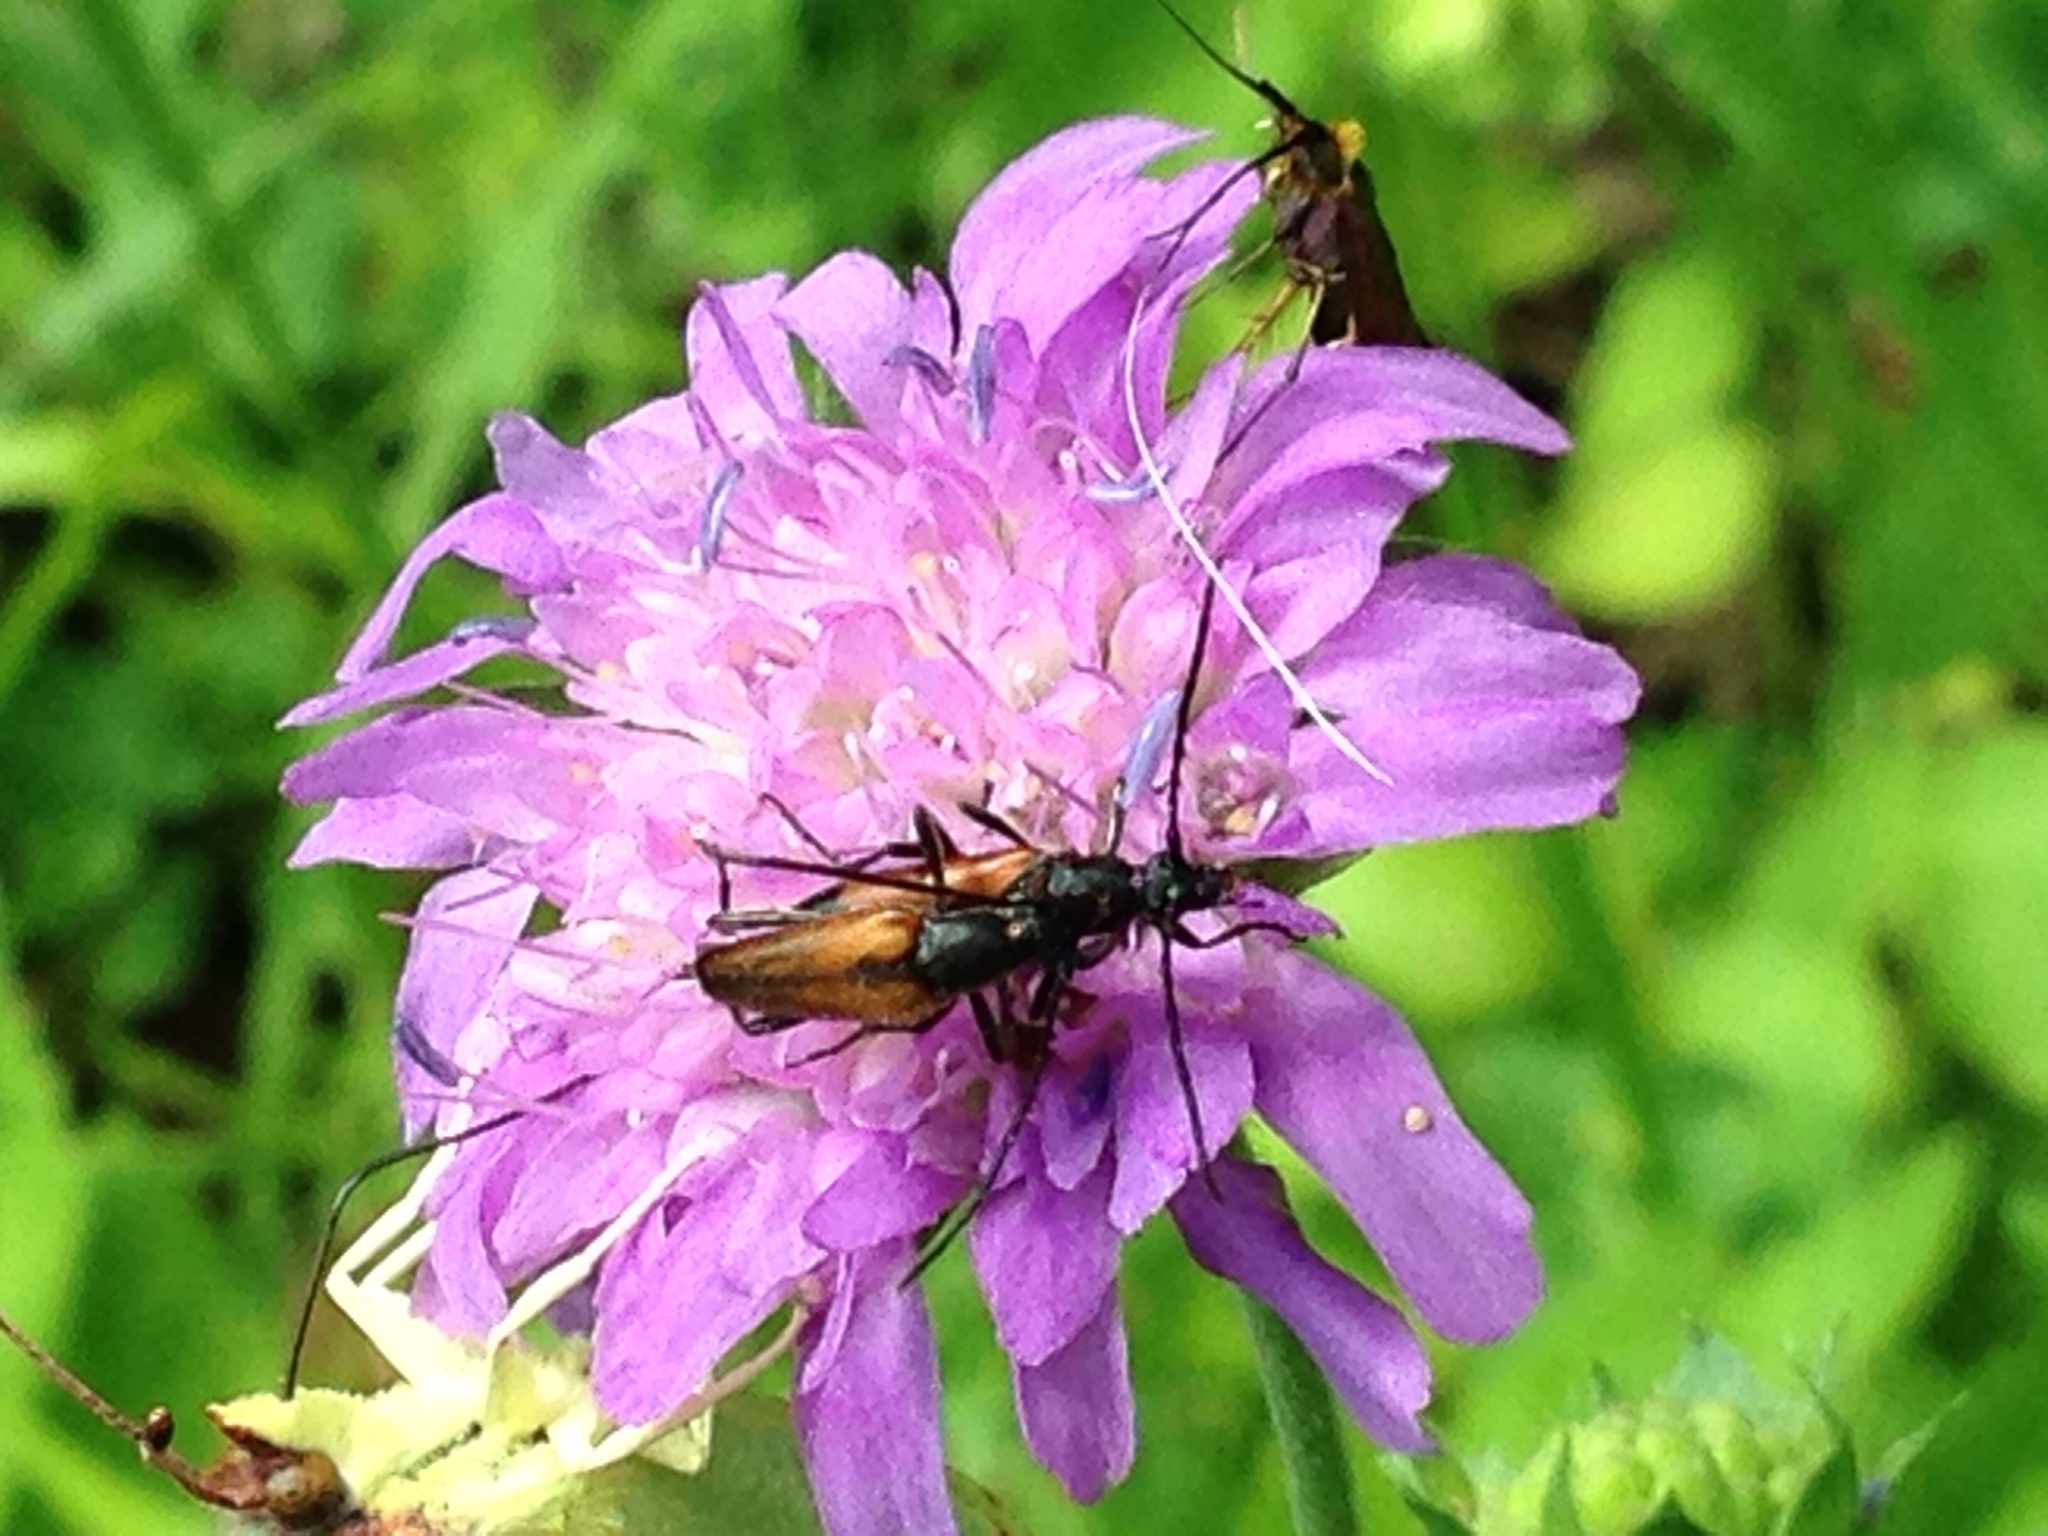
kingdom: Animalia
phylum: Arthropoda
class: Insecta
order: Coleoptera
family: Cerambycidae
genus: Stenurella
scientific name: Stenurella melanura
